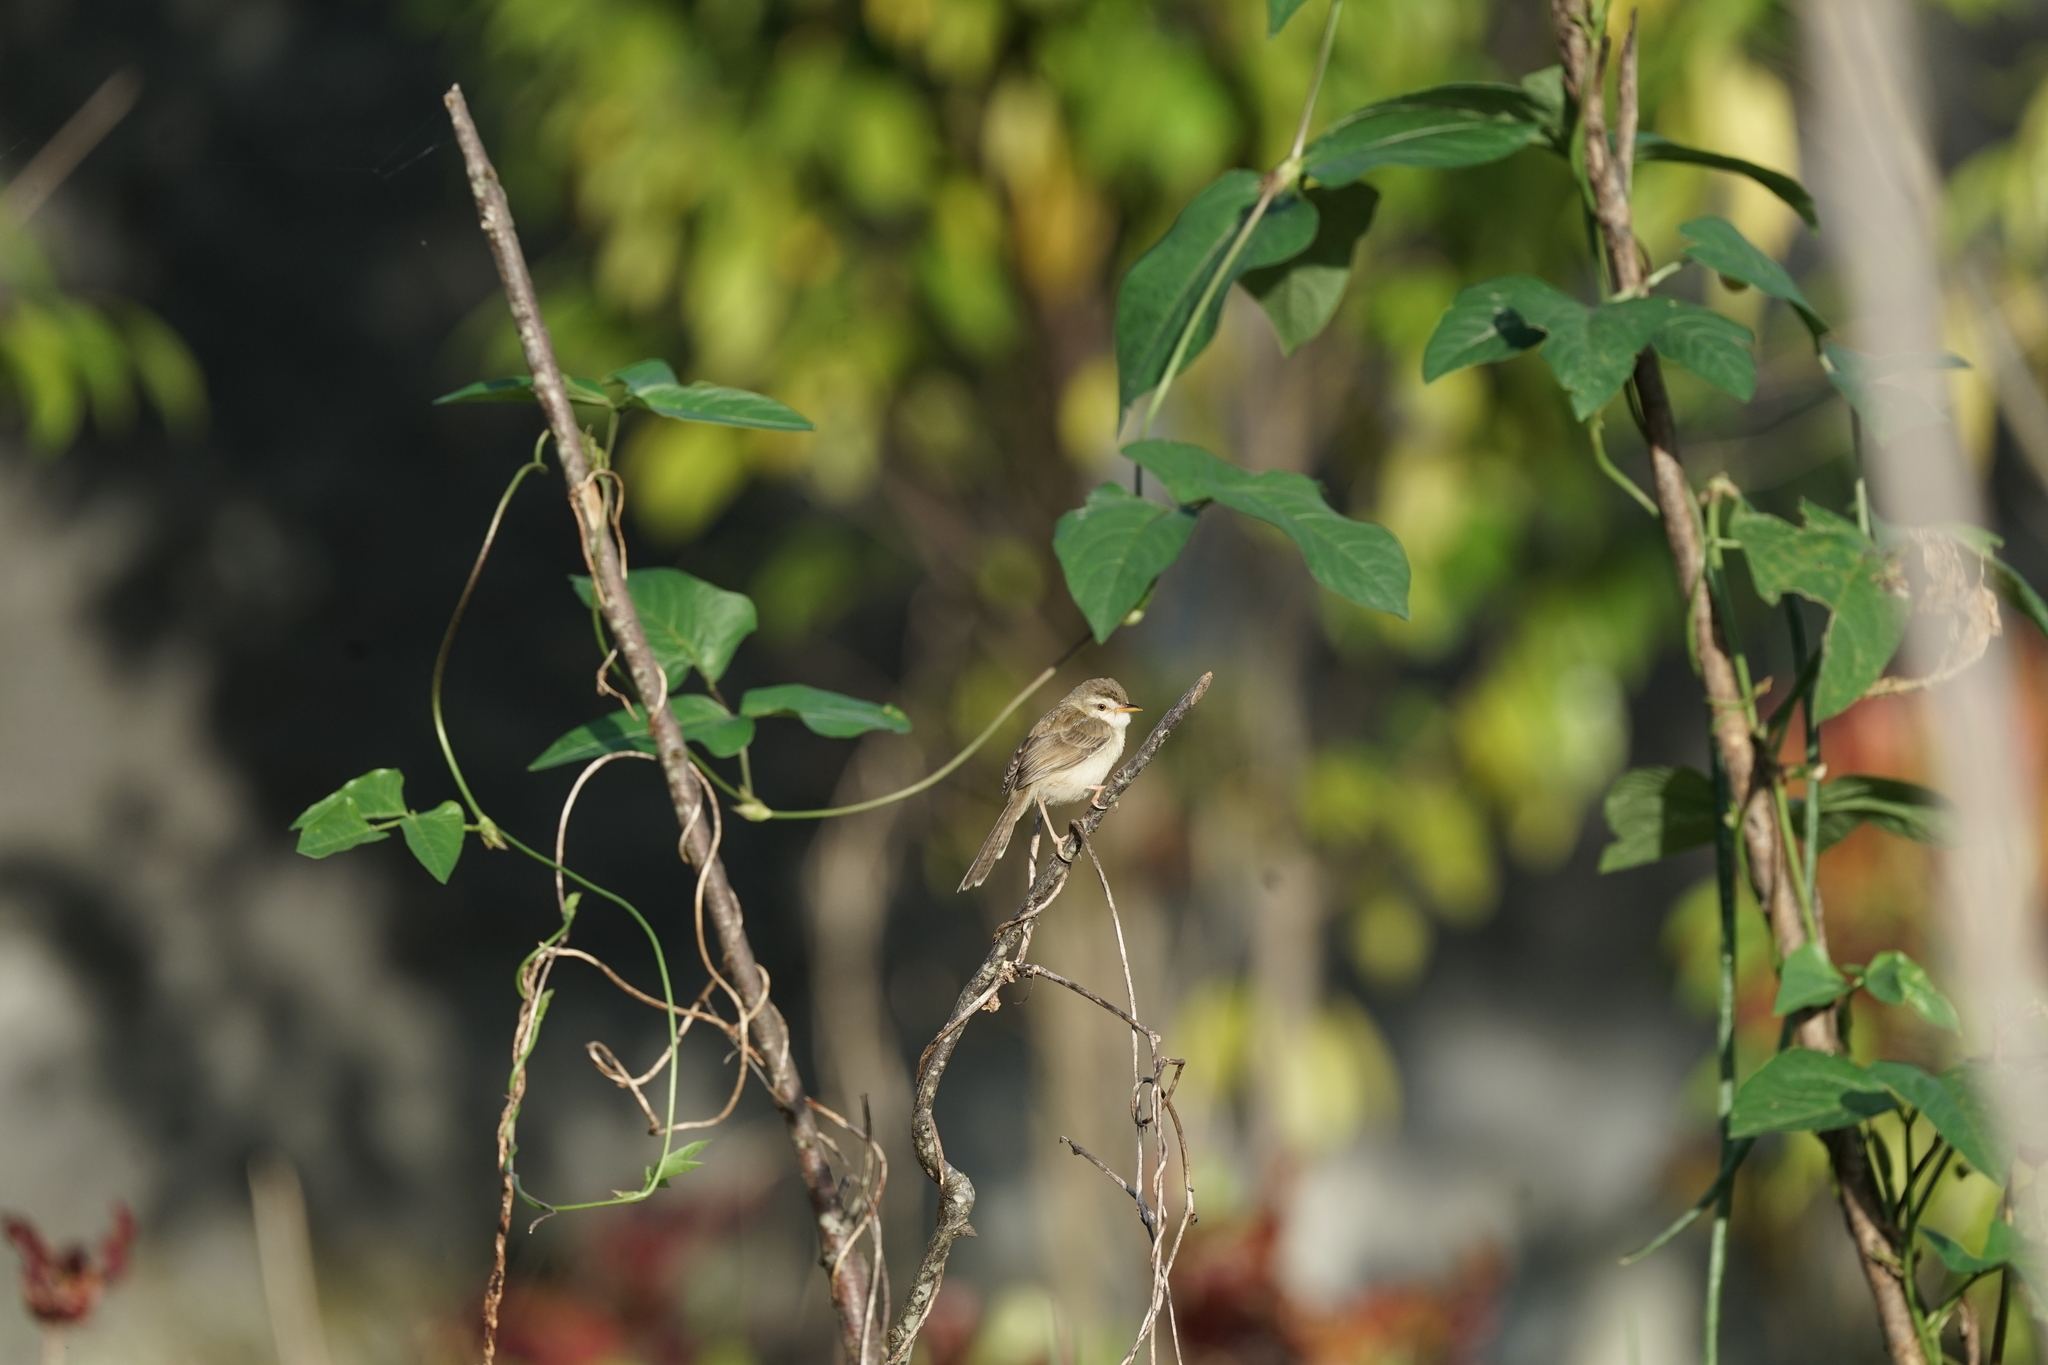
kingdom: Animalia
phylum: Chordata
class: Aves
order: Passeriformes
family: Cisticolidae
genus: Prinia
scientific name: Prinia inornata
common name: Plain prinia
